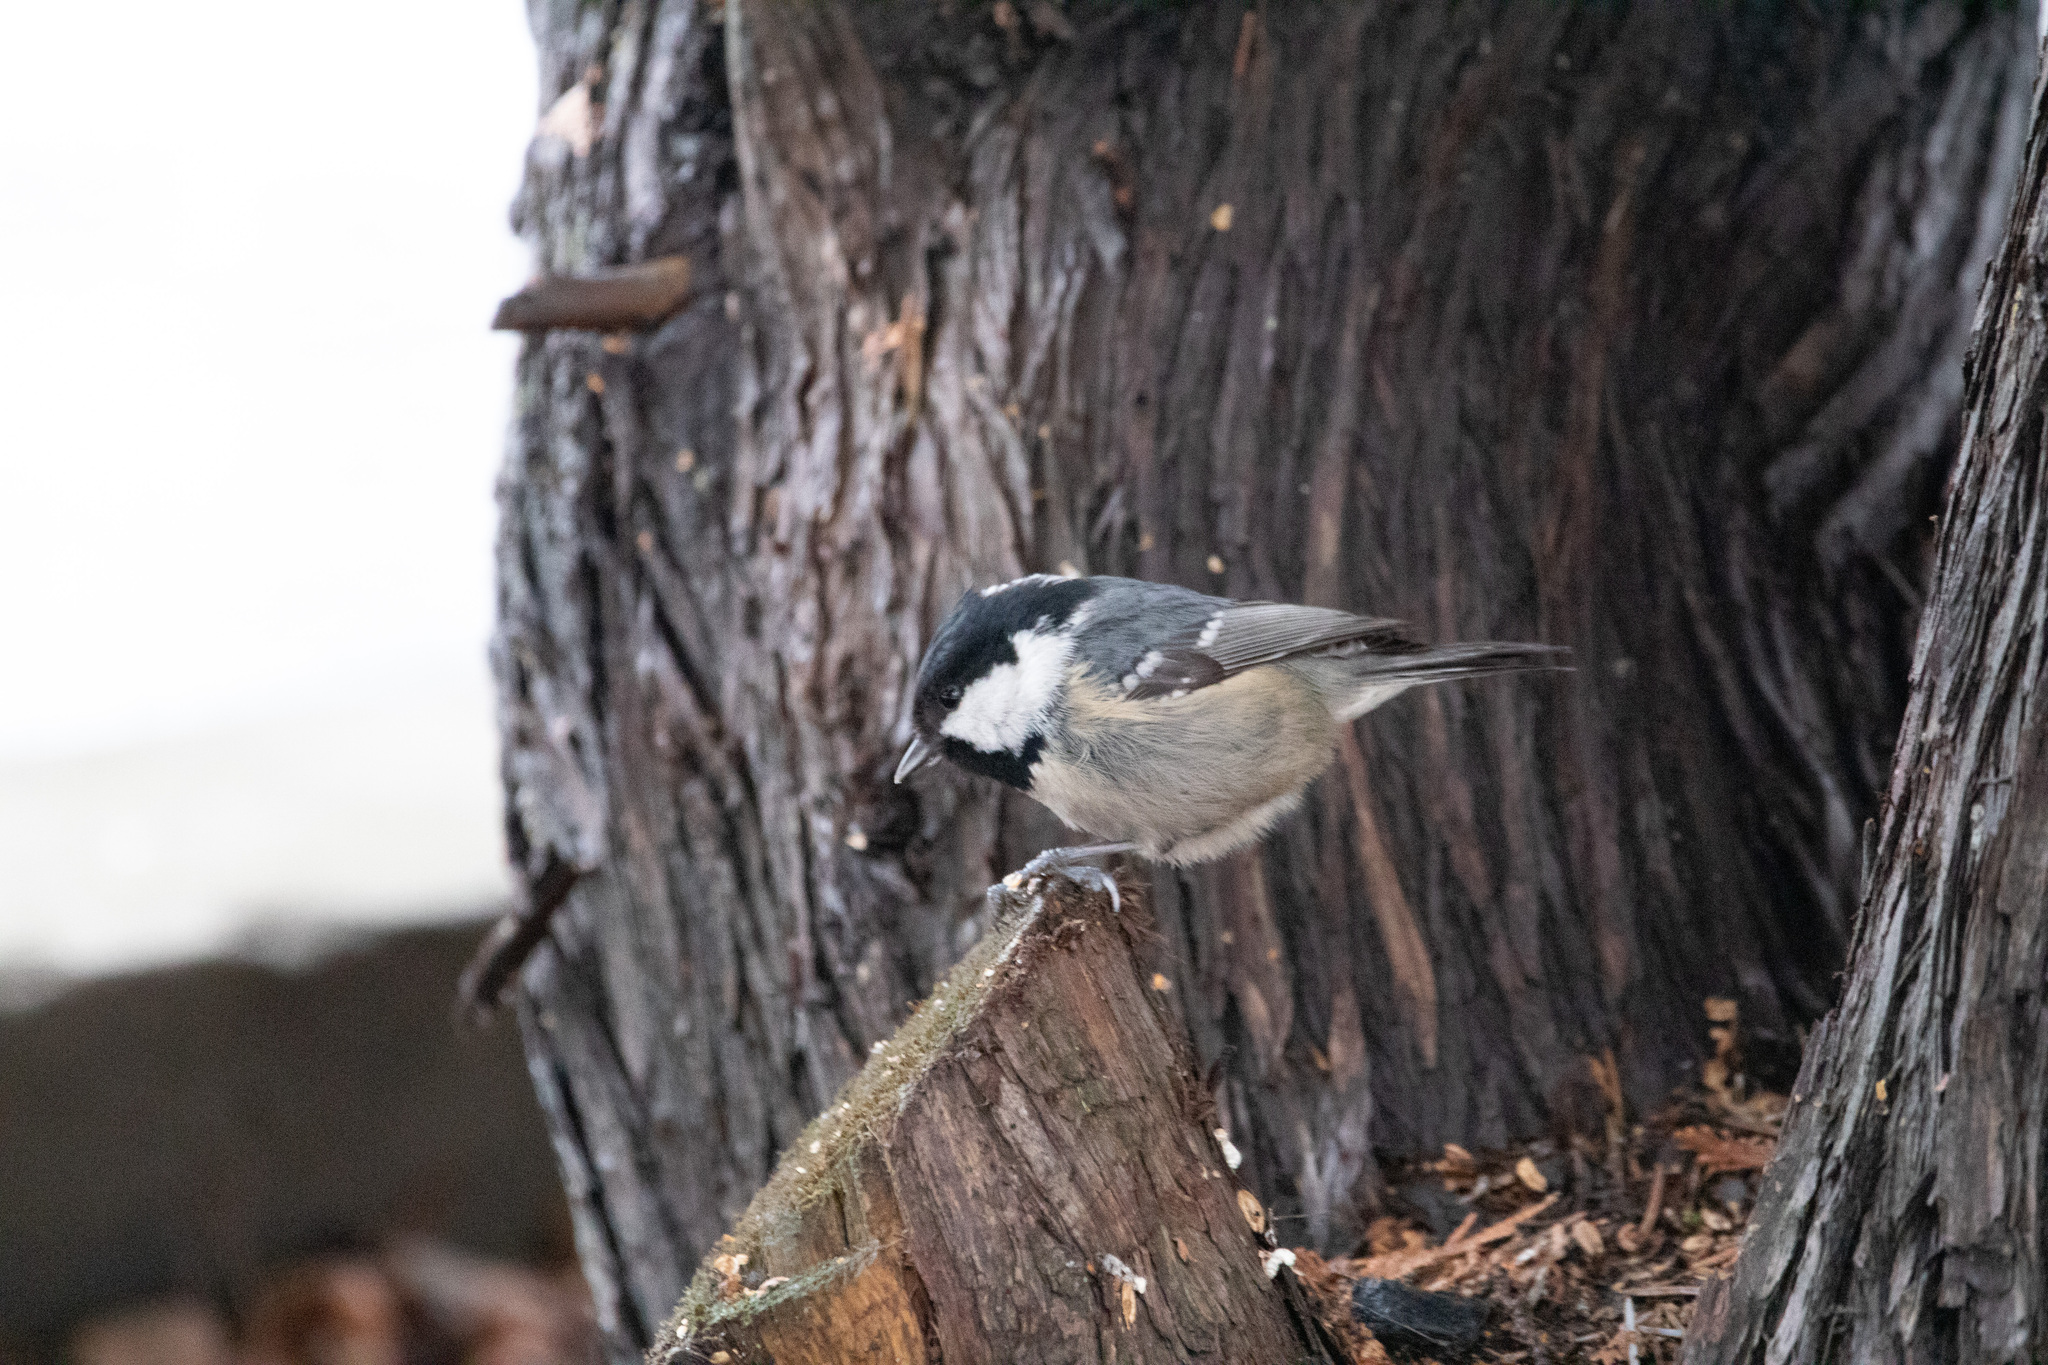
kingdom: Animalia
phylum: Chordata
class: Aves
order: Passeriformes
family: Paridae
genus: Periparus
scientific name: Periparus ater
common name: Coal tit
